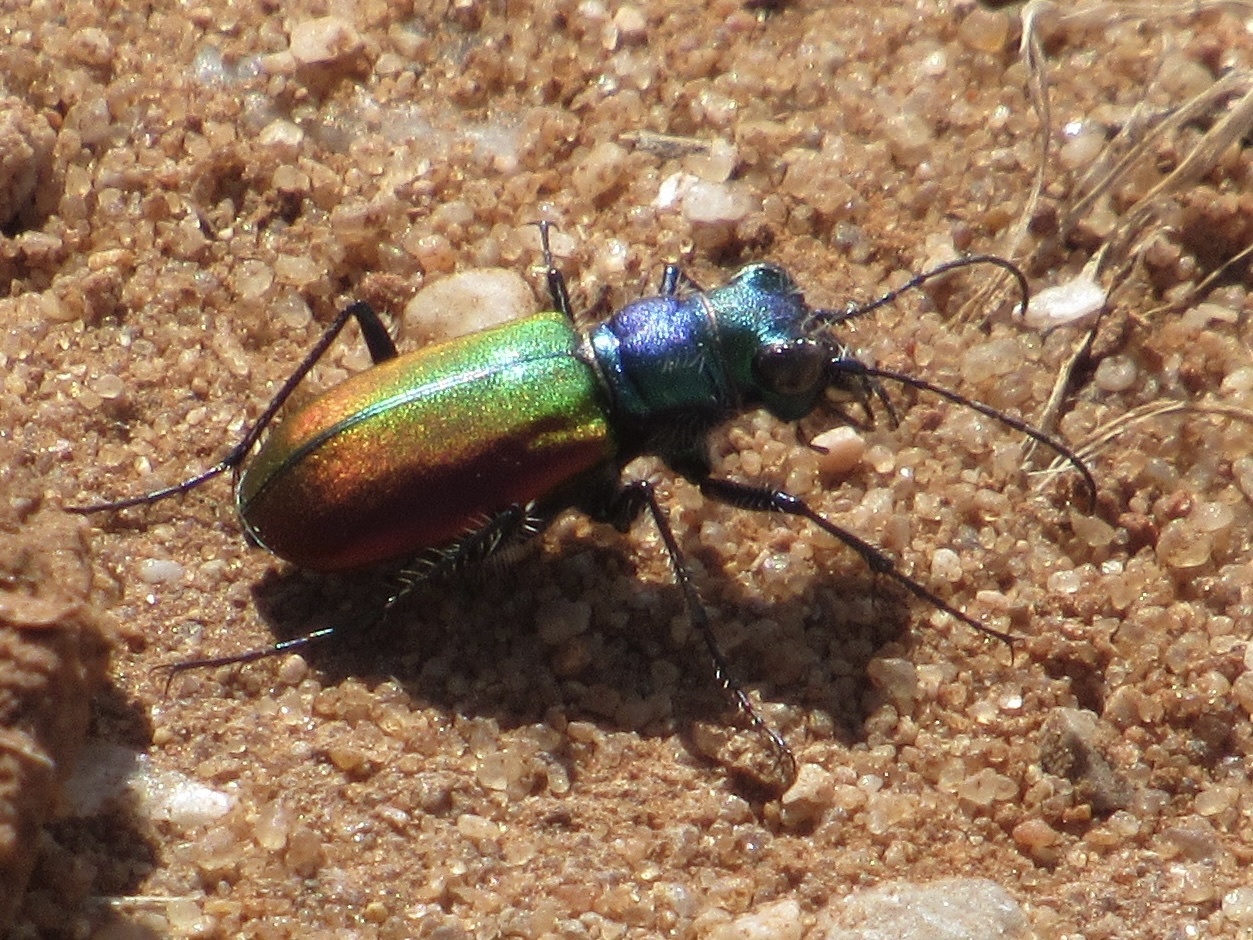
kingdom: Animalia
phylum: Arthropoda
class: Insecta
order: Coleoptera
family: Carabidae
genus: Cicindela
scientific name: Cicindela scutellaris
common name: Festive tiger beetle
